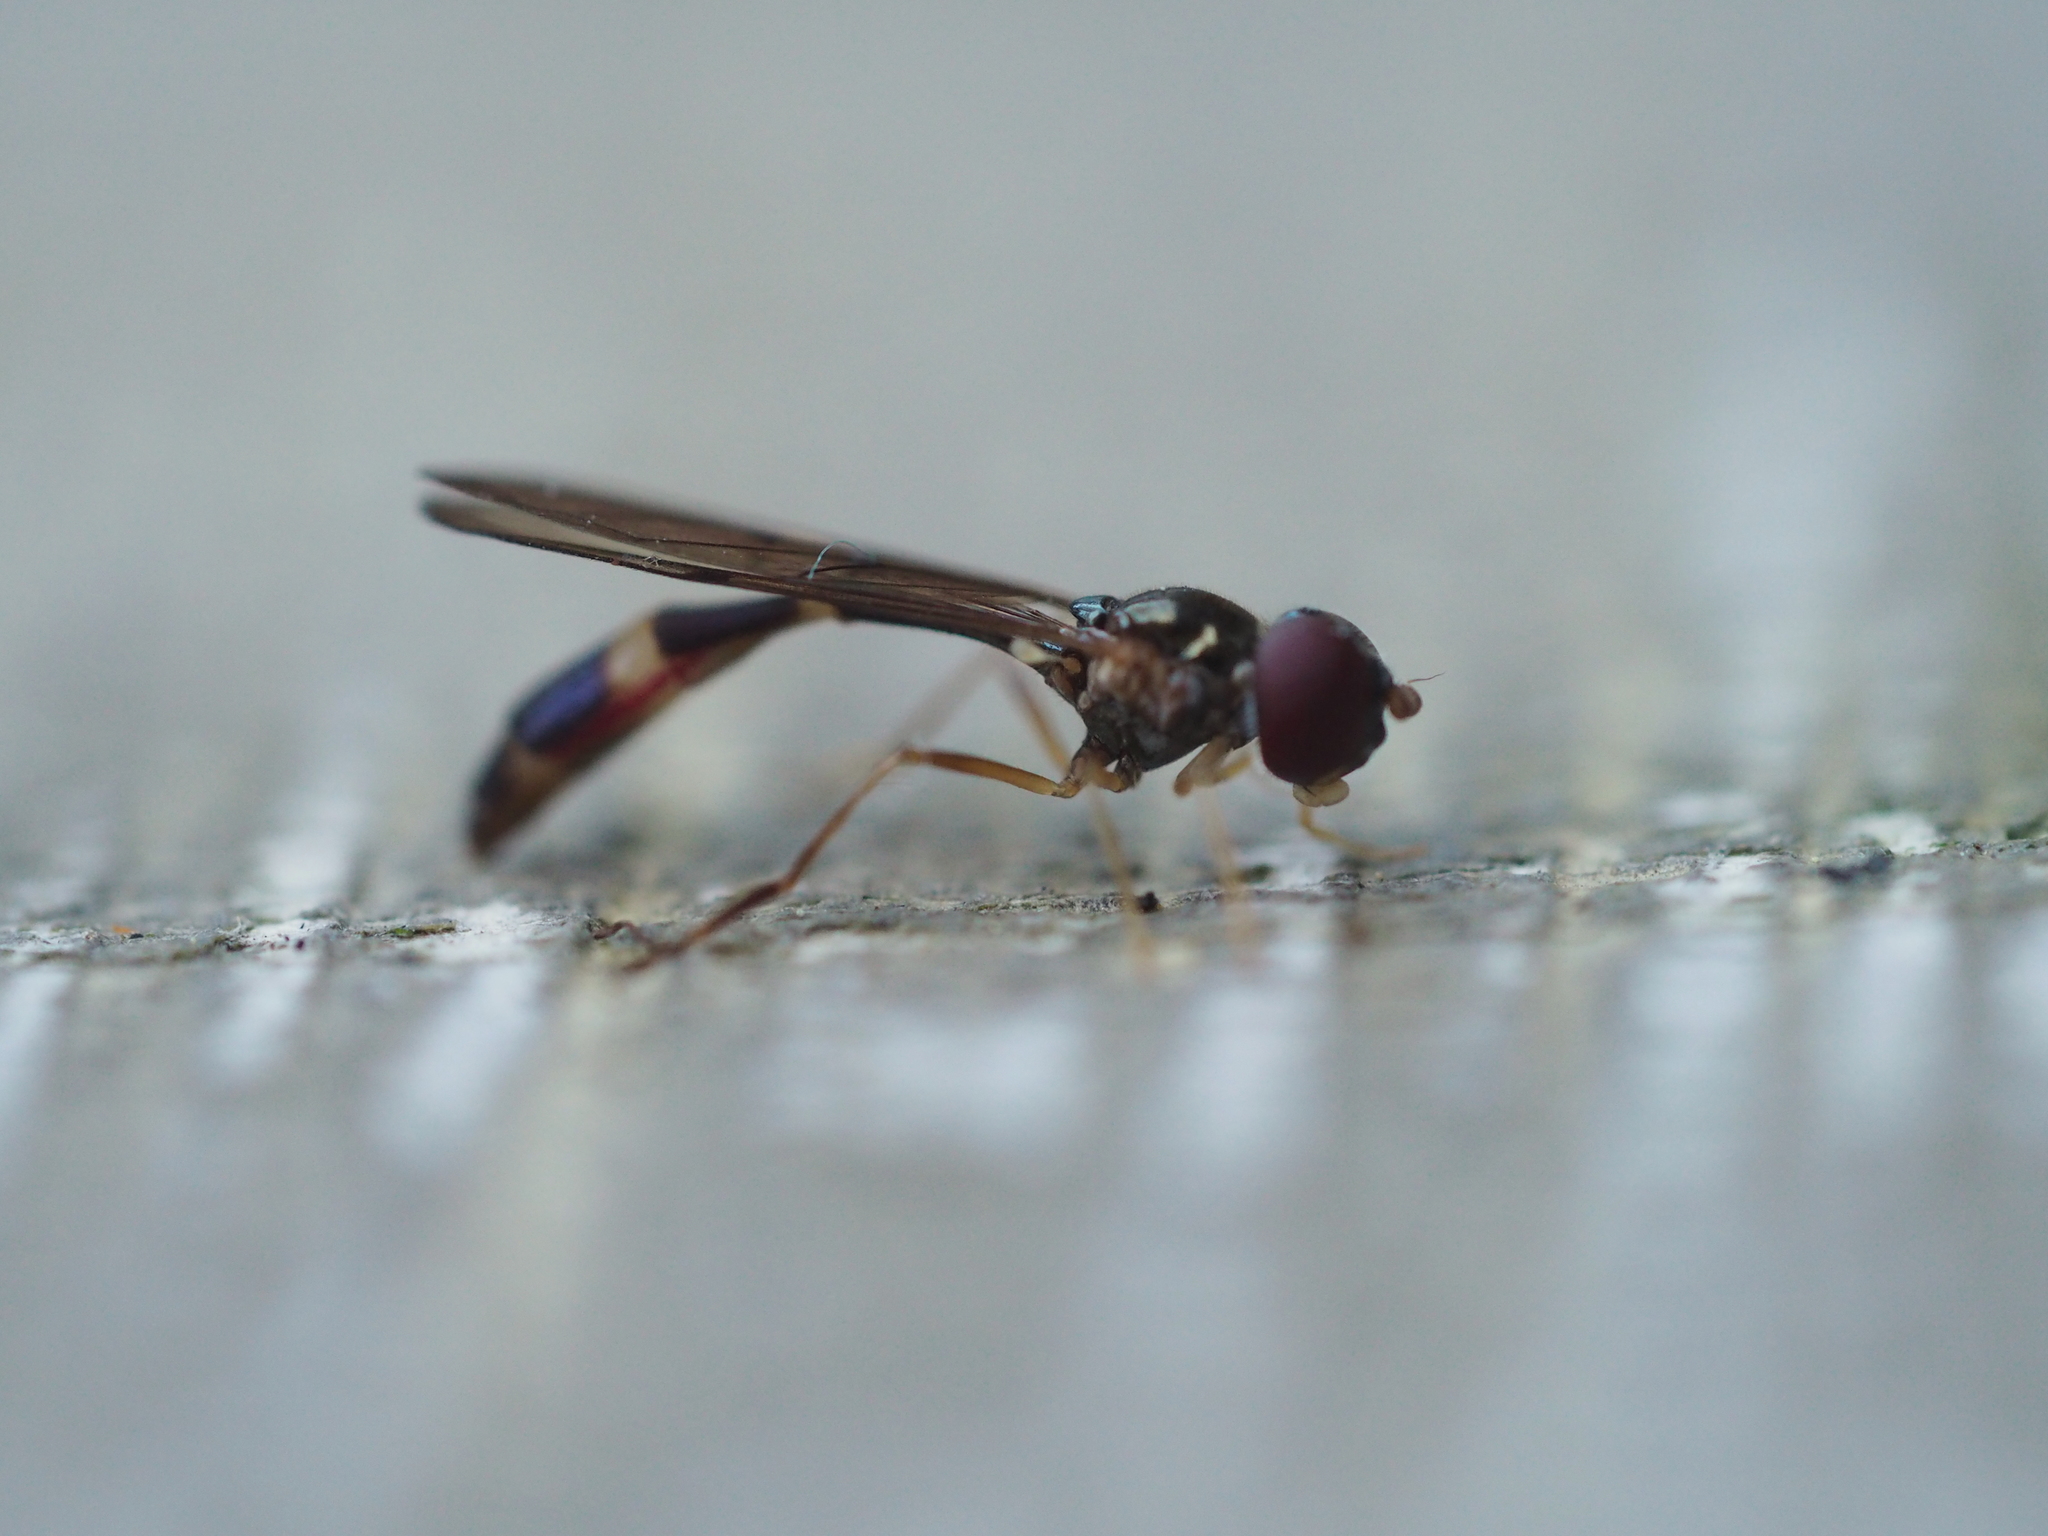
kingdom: Animalia
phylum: Arthropoda
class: Insecta
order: Diptera
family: Syrphidae
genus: Baccha
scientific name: Baccha elongata
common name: Common dainty
